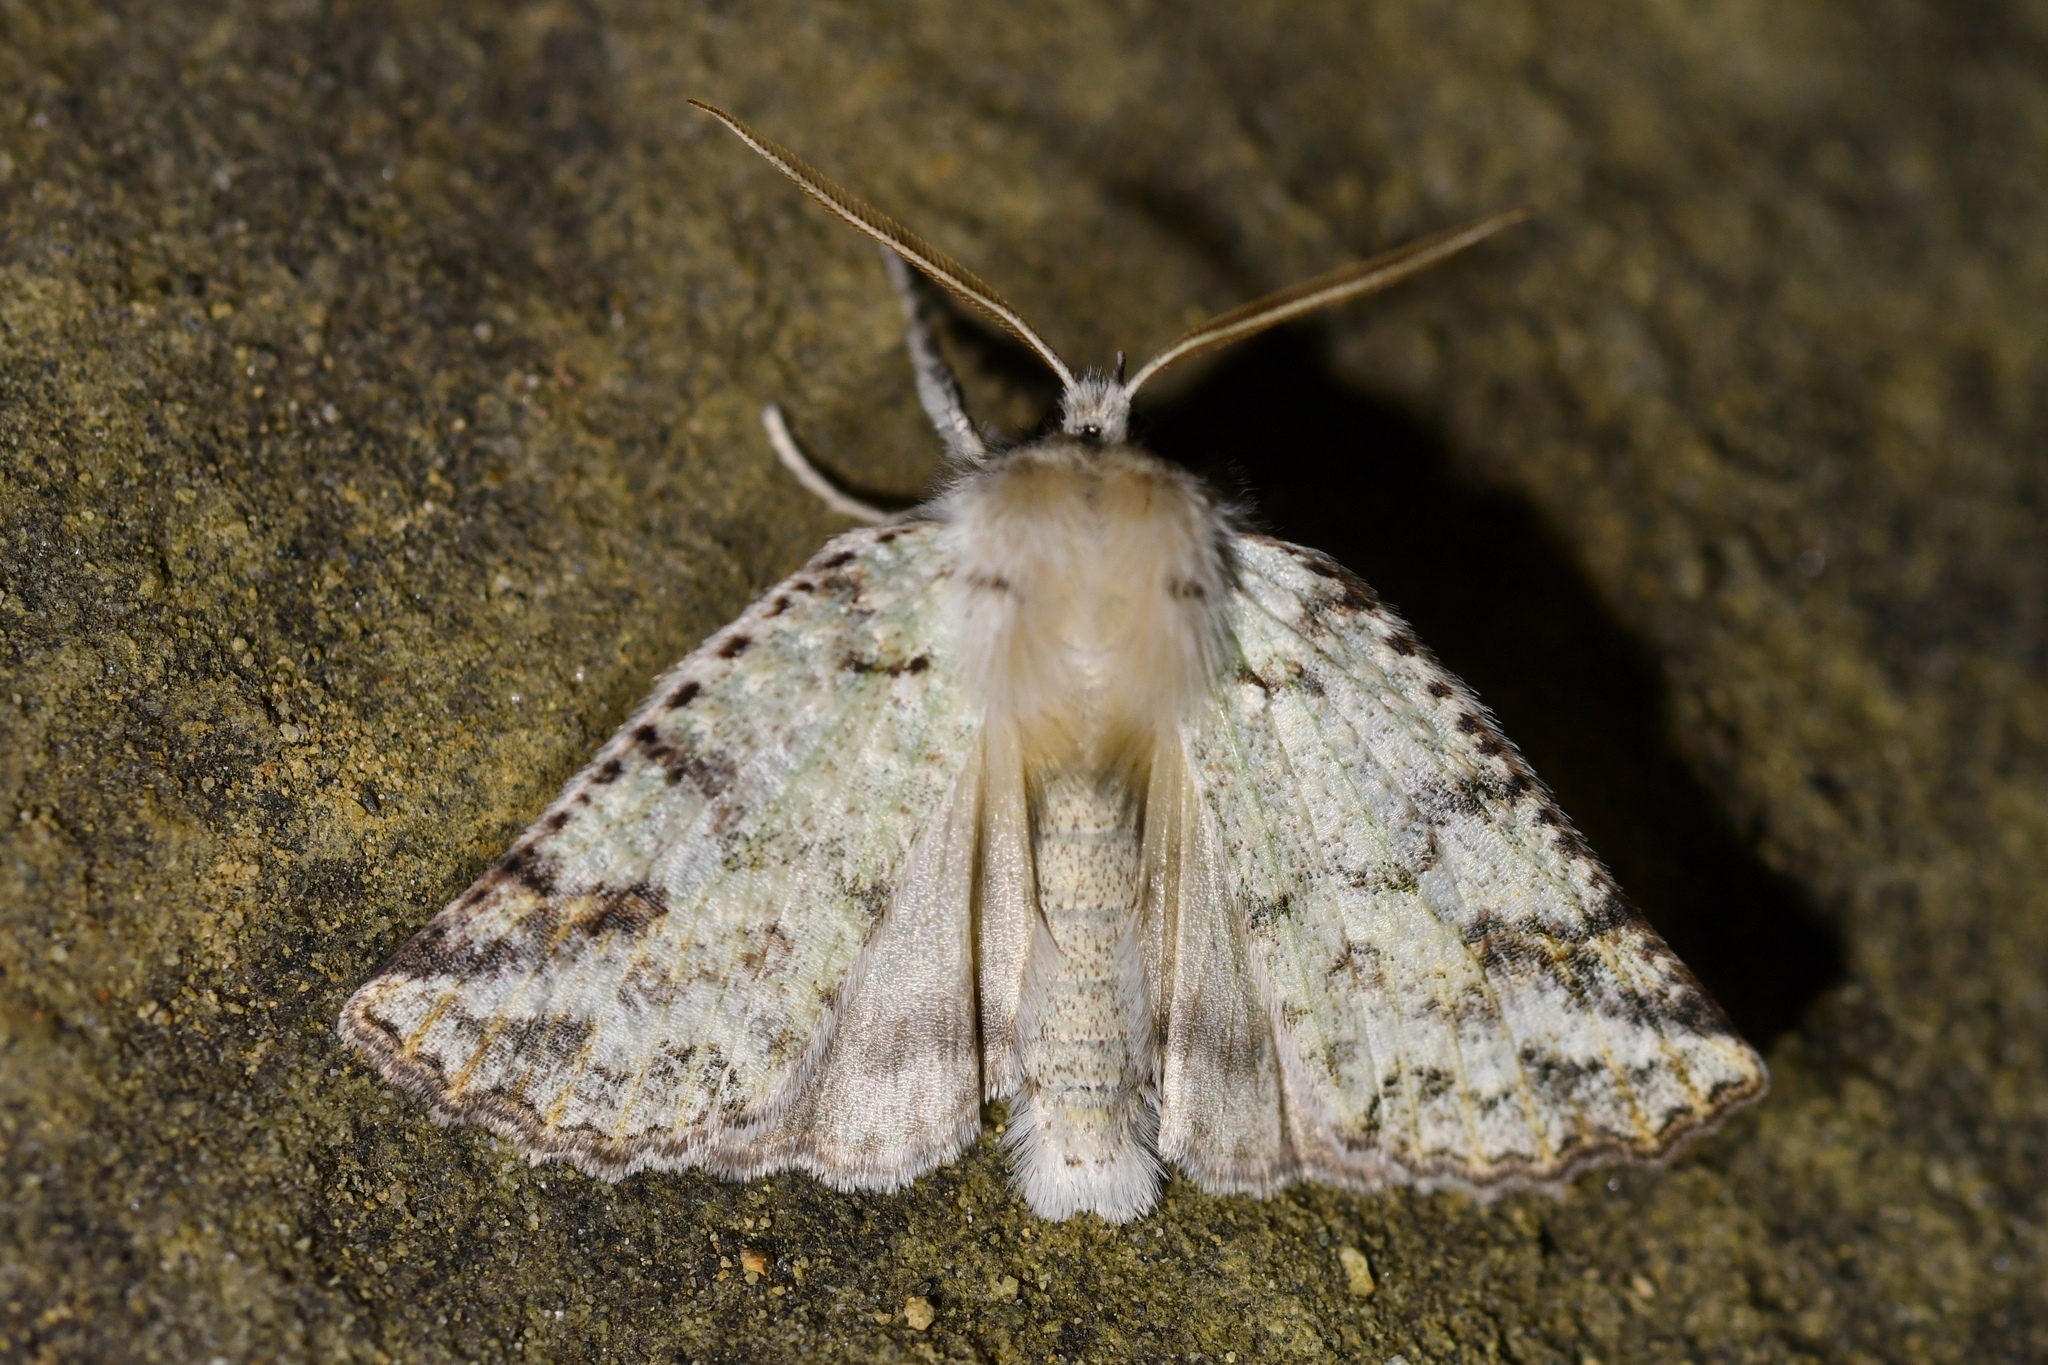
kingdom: Animalia
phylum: Arthropoda
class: Insecta
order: Lepidoptera
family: Geometridae
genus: Declana
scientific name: Declana floccosa
